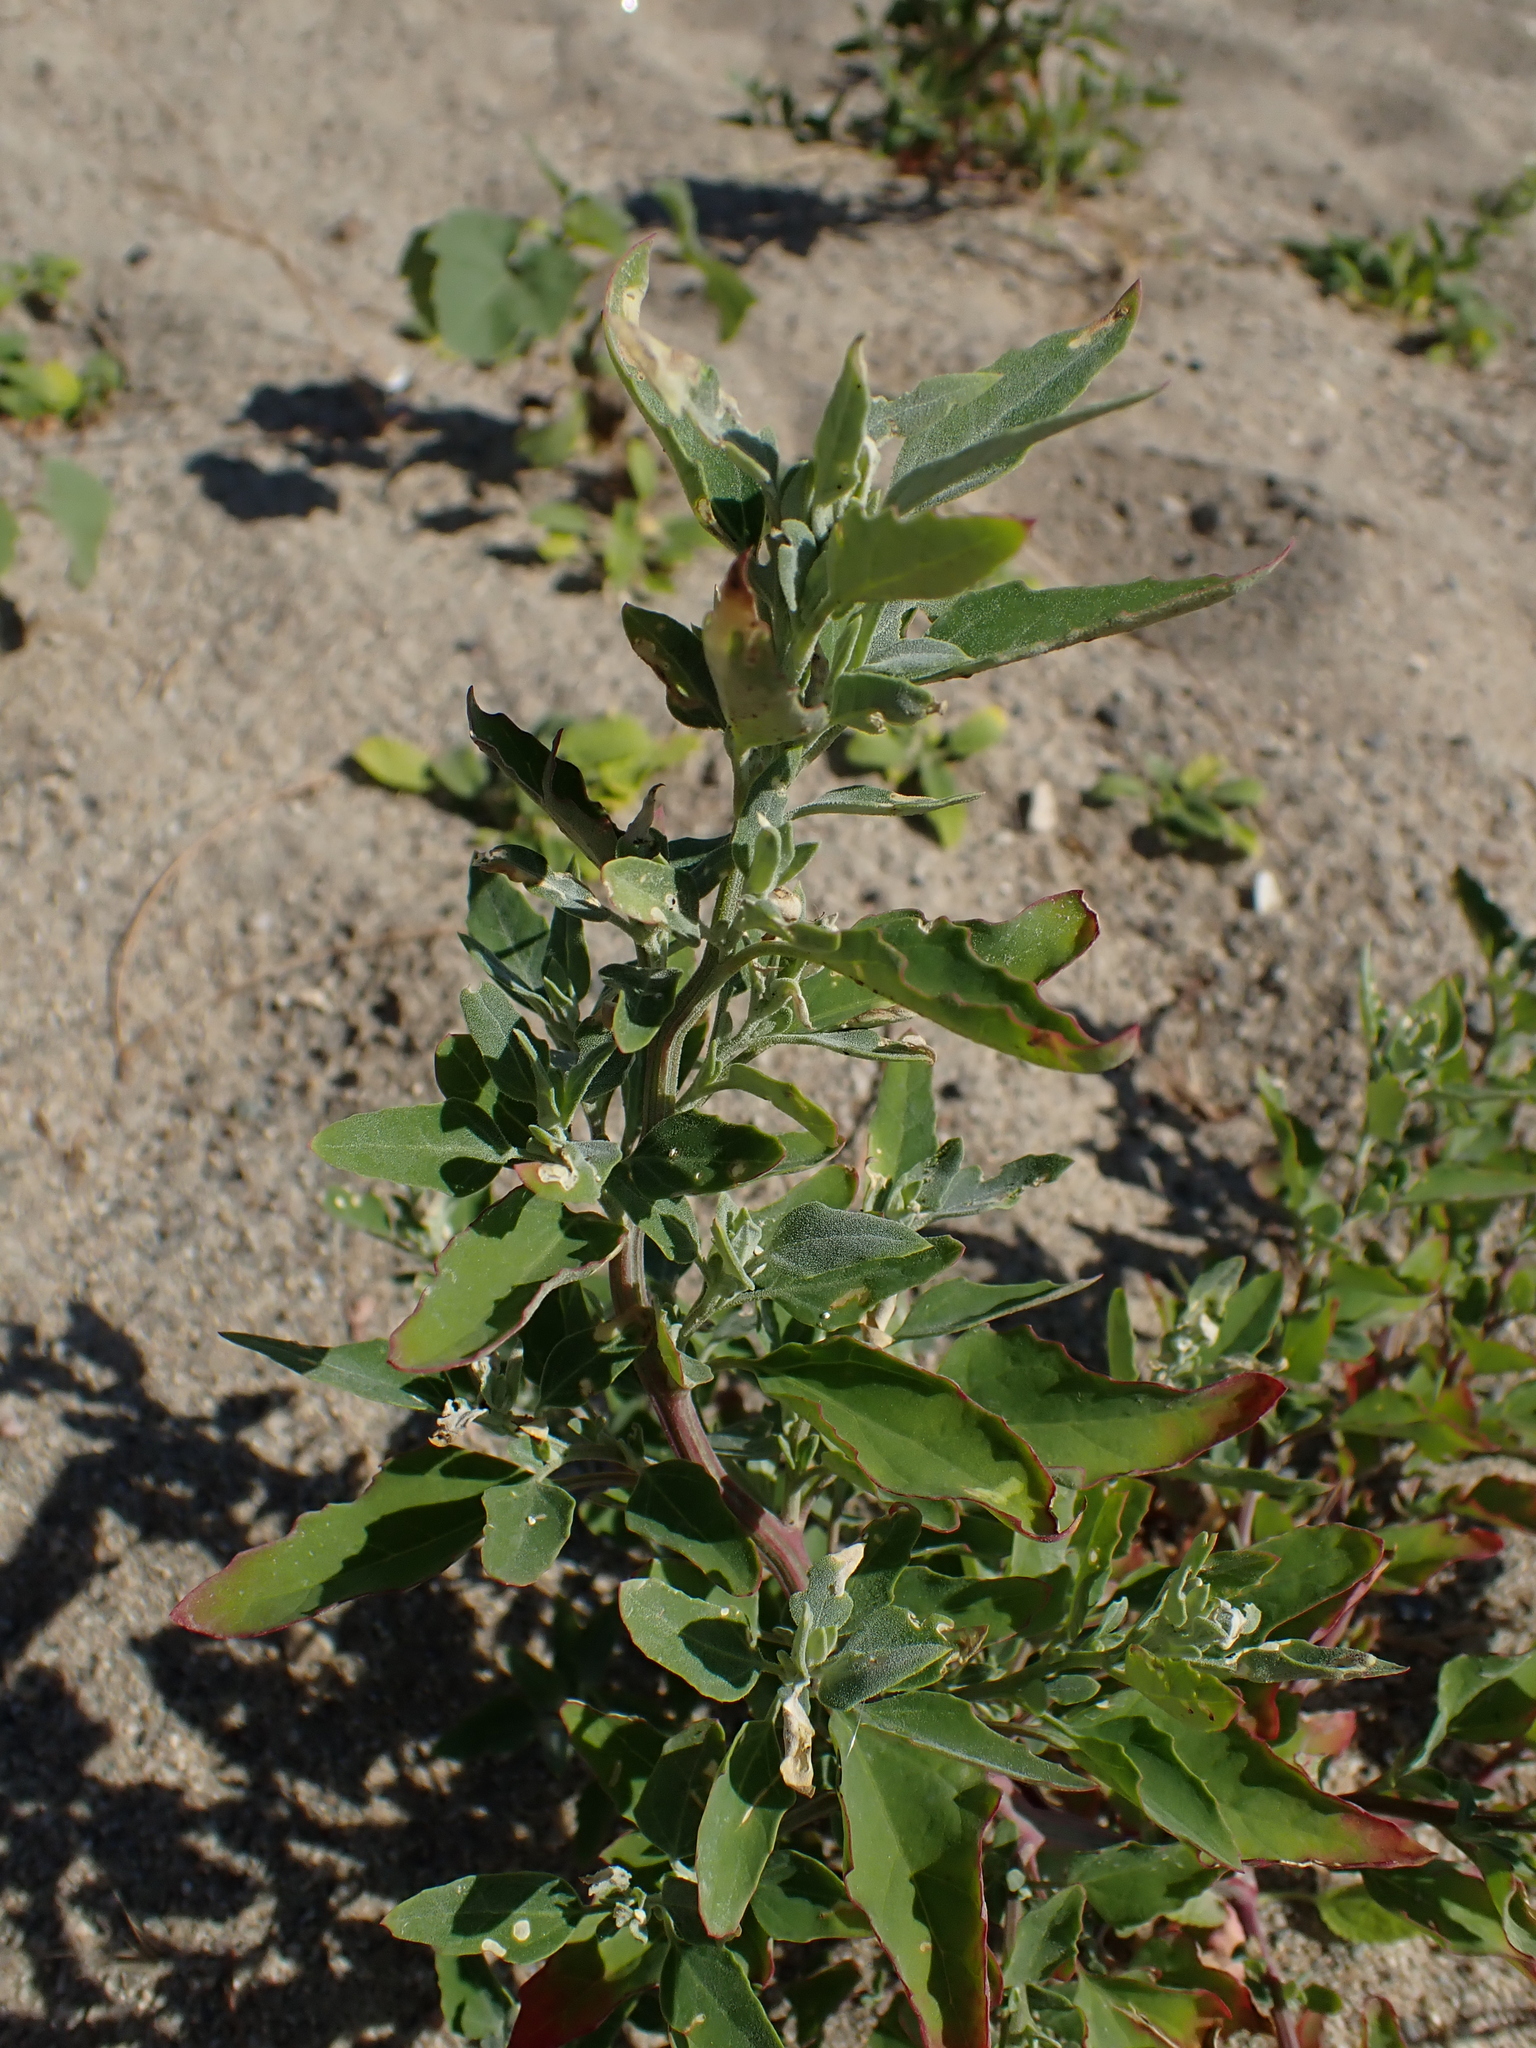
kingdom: Plantae
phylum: Tracheophyta
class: Magnoliopsida
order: Caryophyllales
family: Amaranthaceae
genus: Chenopodium
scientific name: Chenopodium album
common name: Fat-hen
